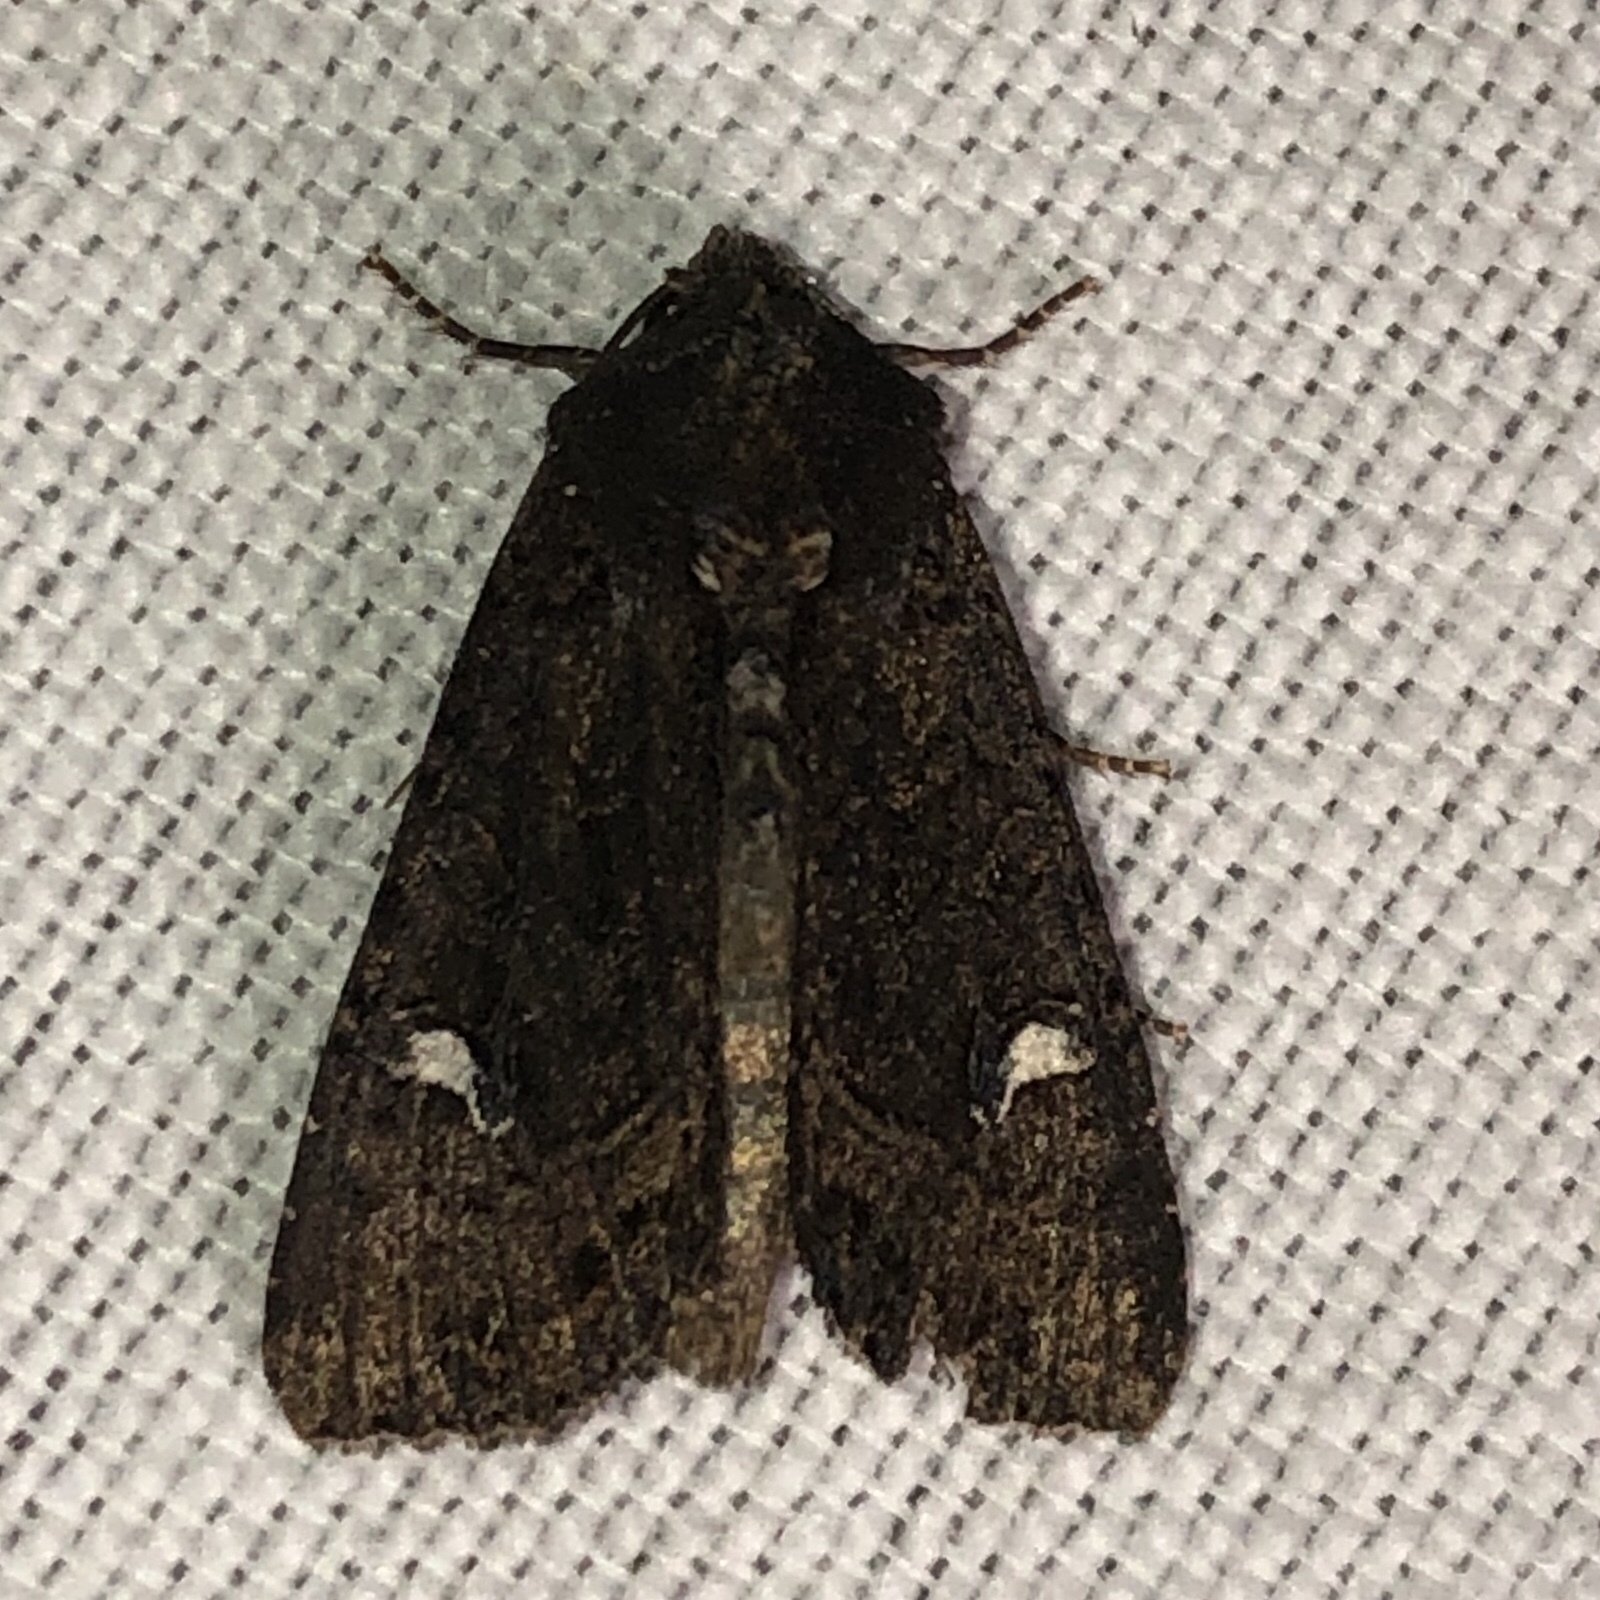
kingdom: Animalia
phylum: Arthropoda
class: Insecta
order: Lepidoptera
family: Noctuidae
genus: Helotropha
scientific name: Helotropha reniformis
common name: Kidney-spotted rustic moth
